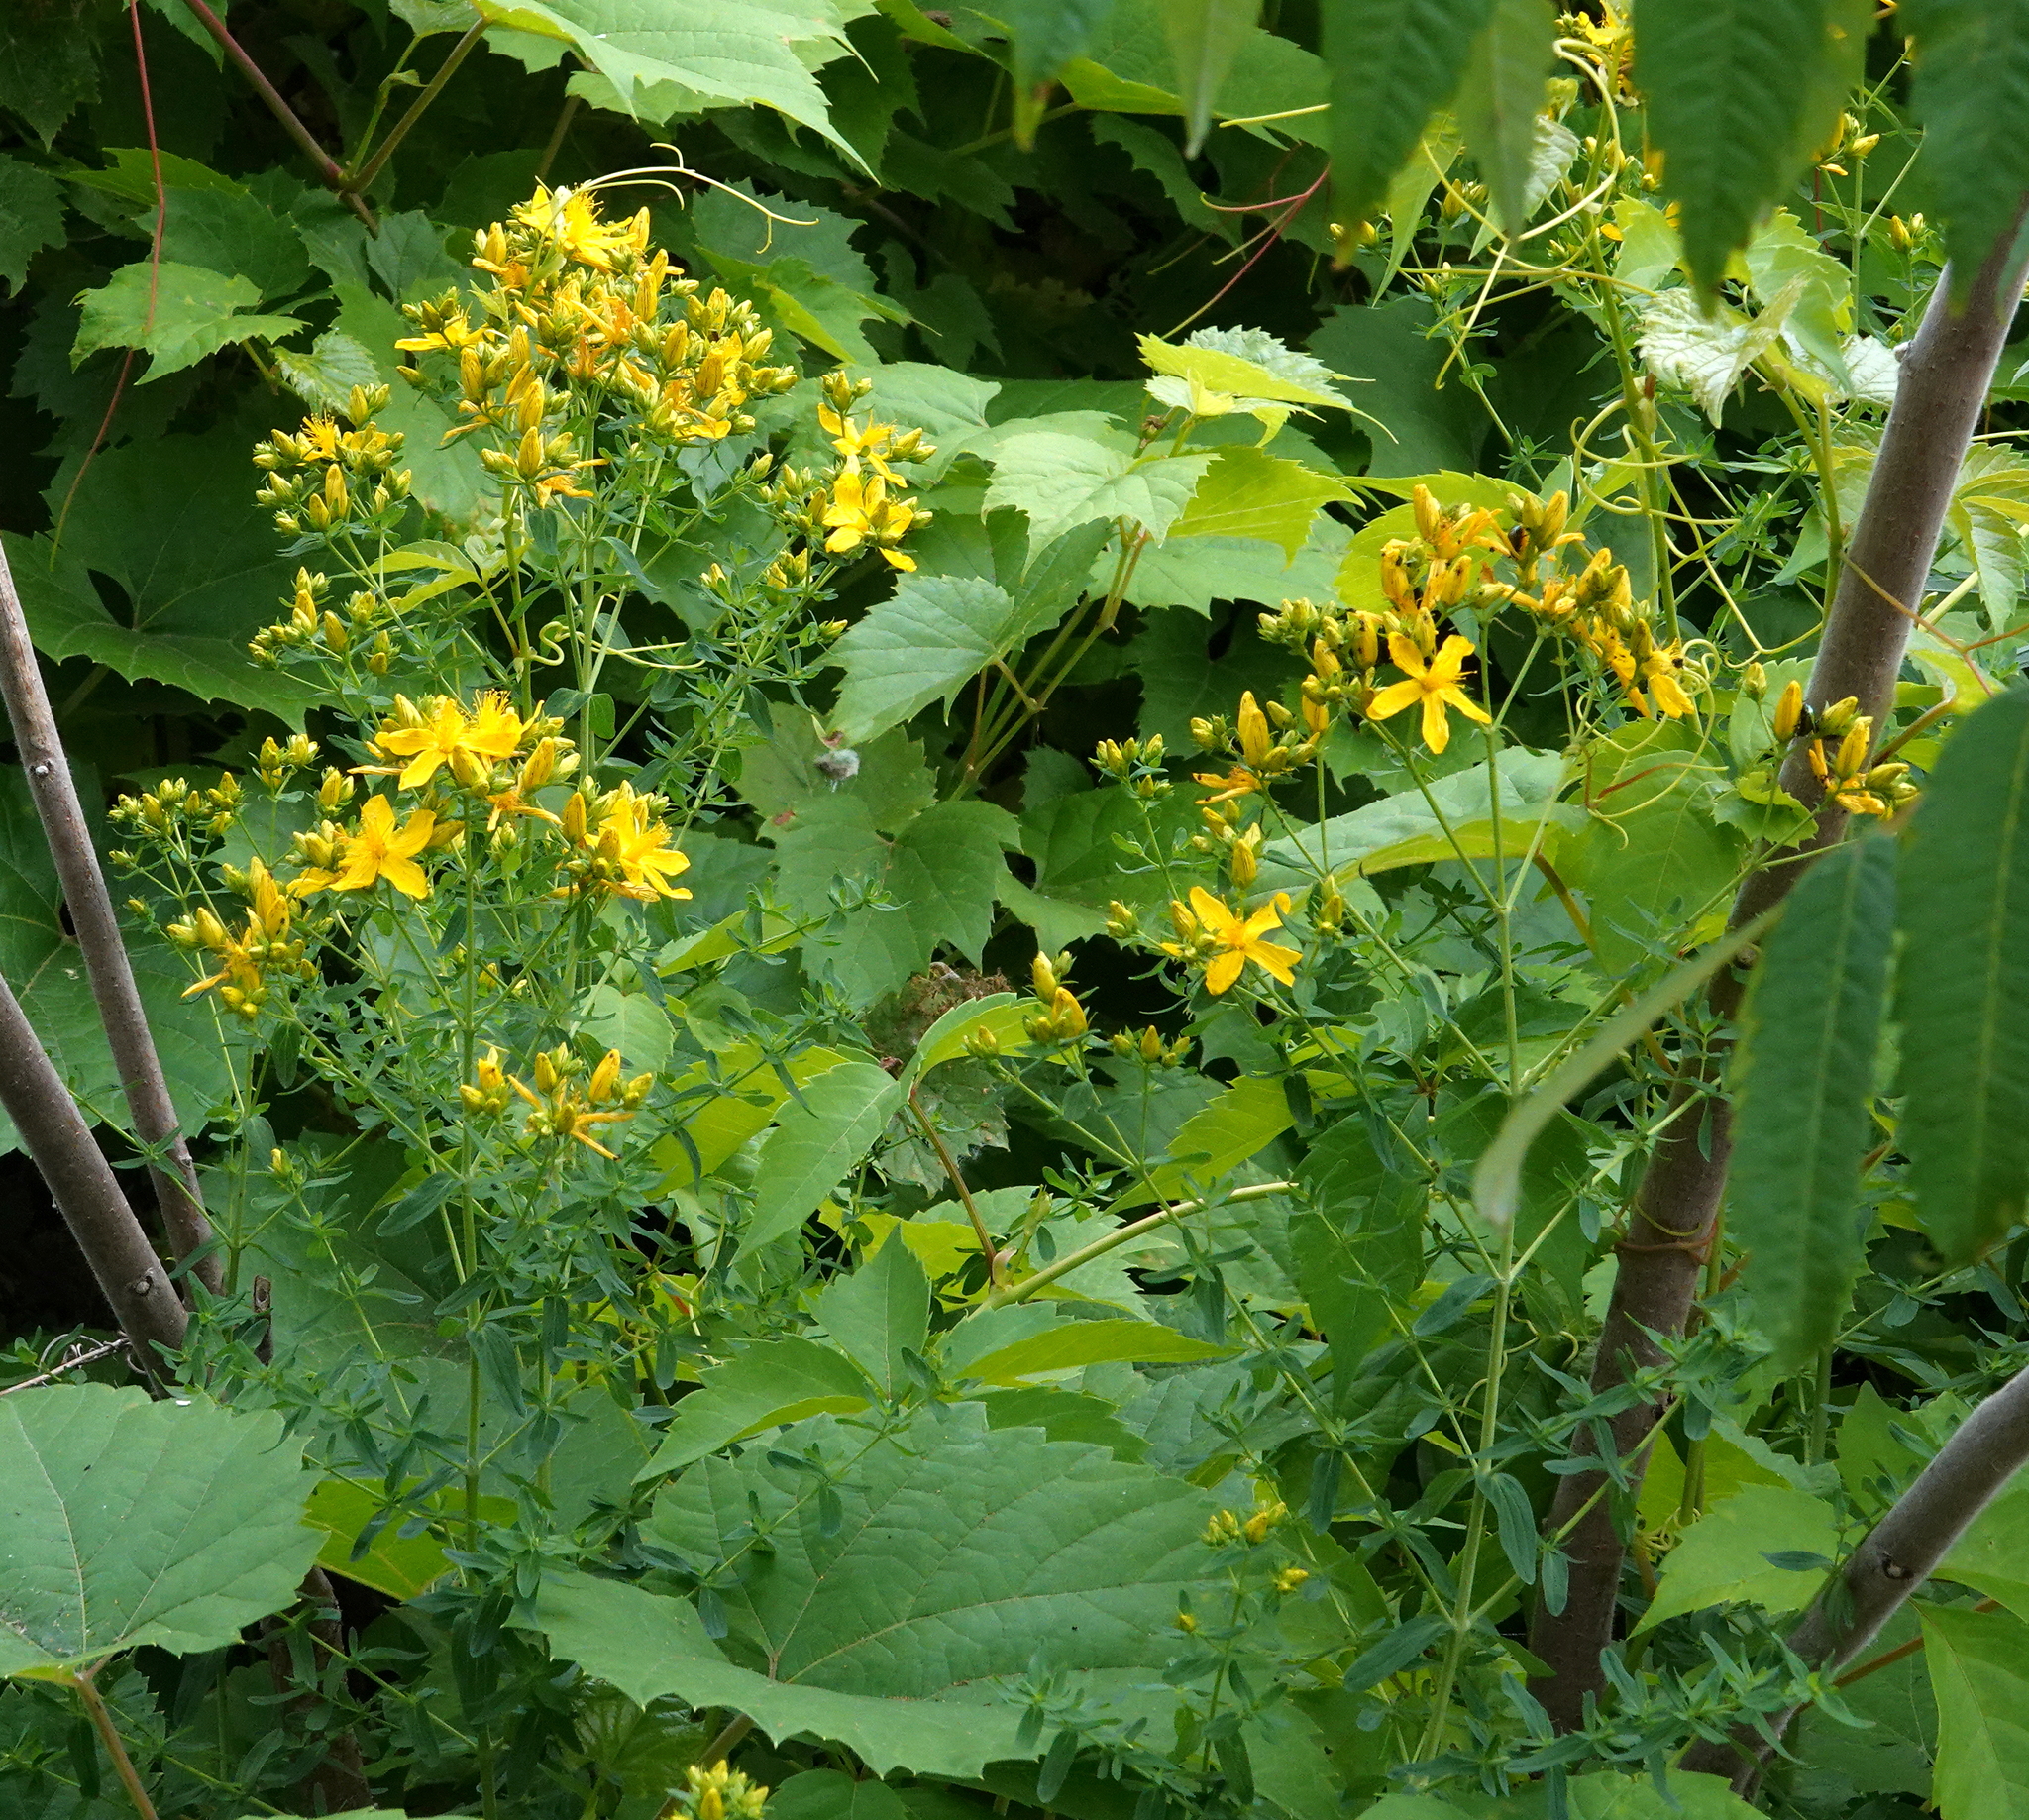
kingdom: Plantae
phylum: Tracheophyta
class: Magnoliopsida
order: Malpighiales
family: Hypericaceae
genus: Hypericum
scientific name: Hypericum perforatum
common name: Common st. johnswort
